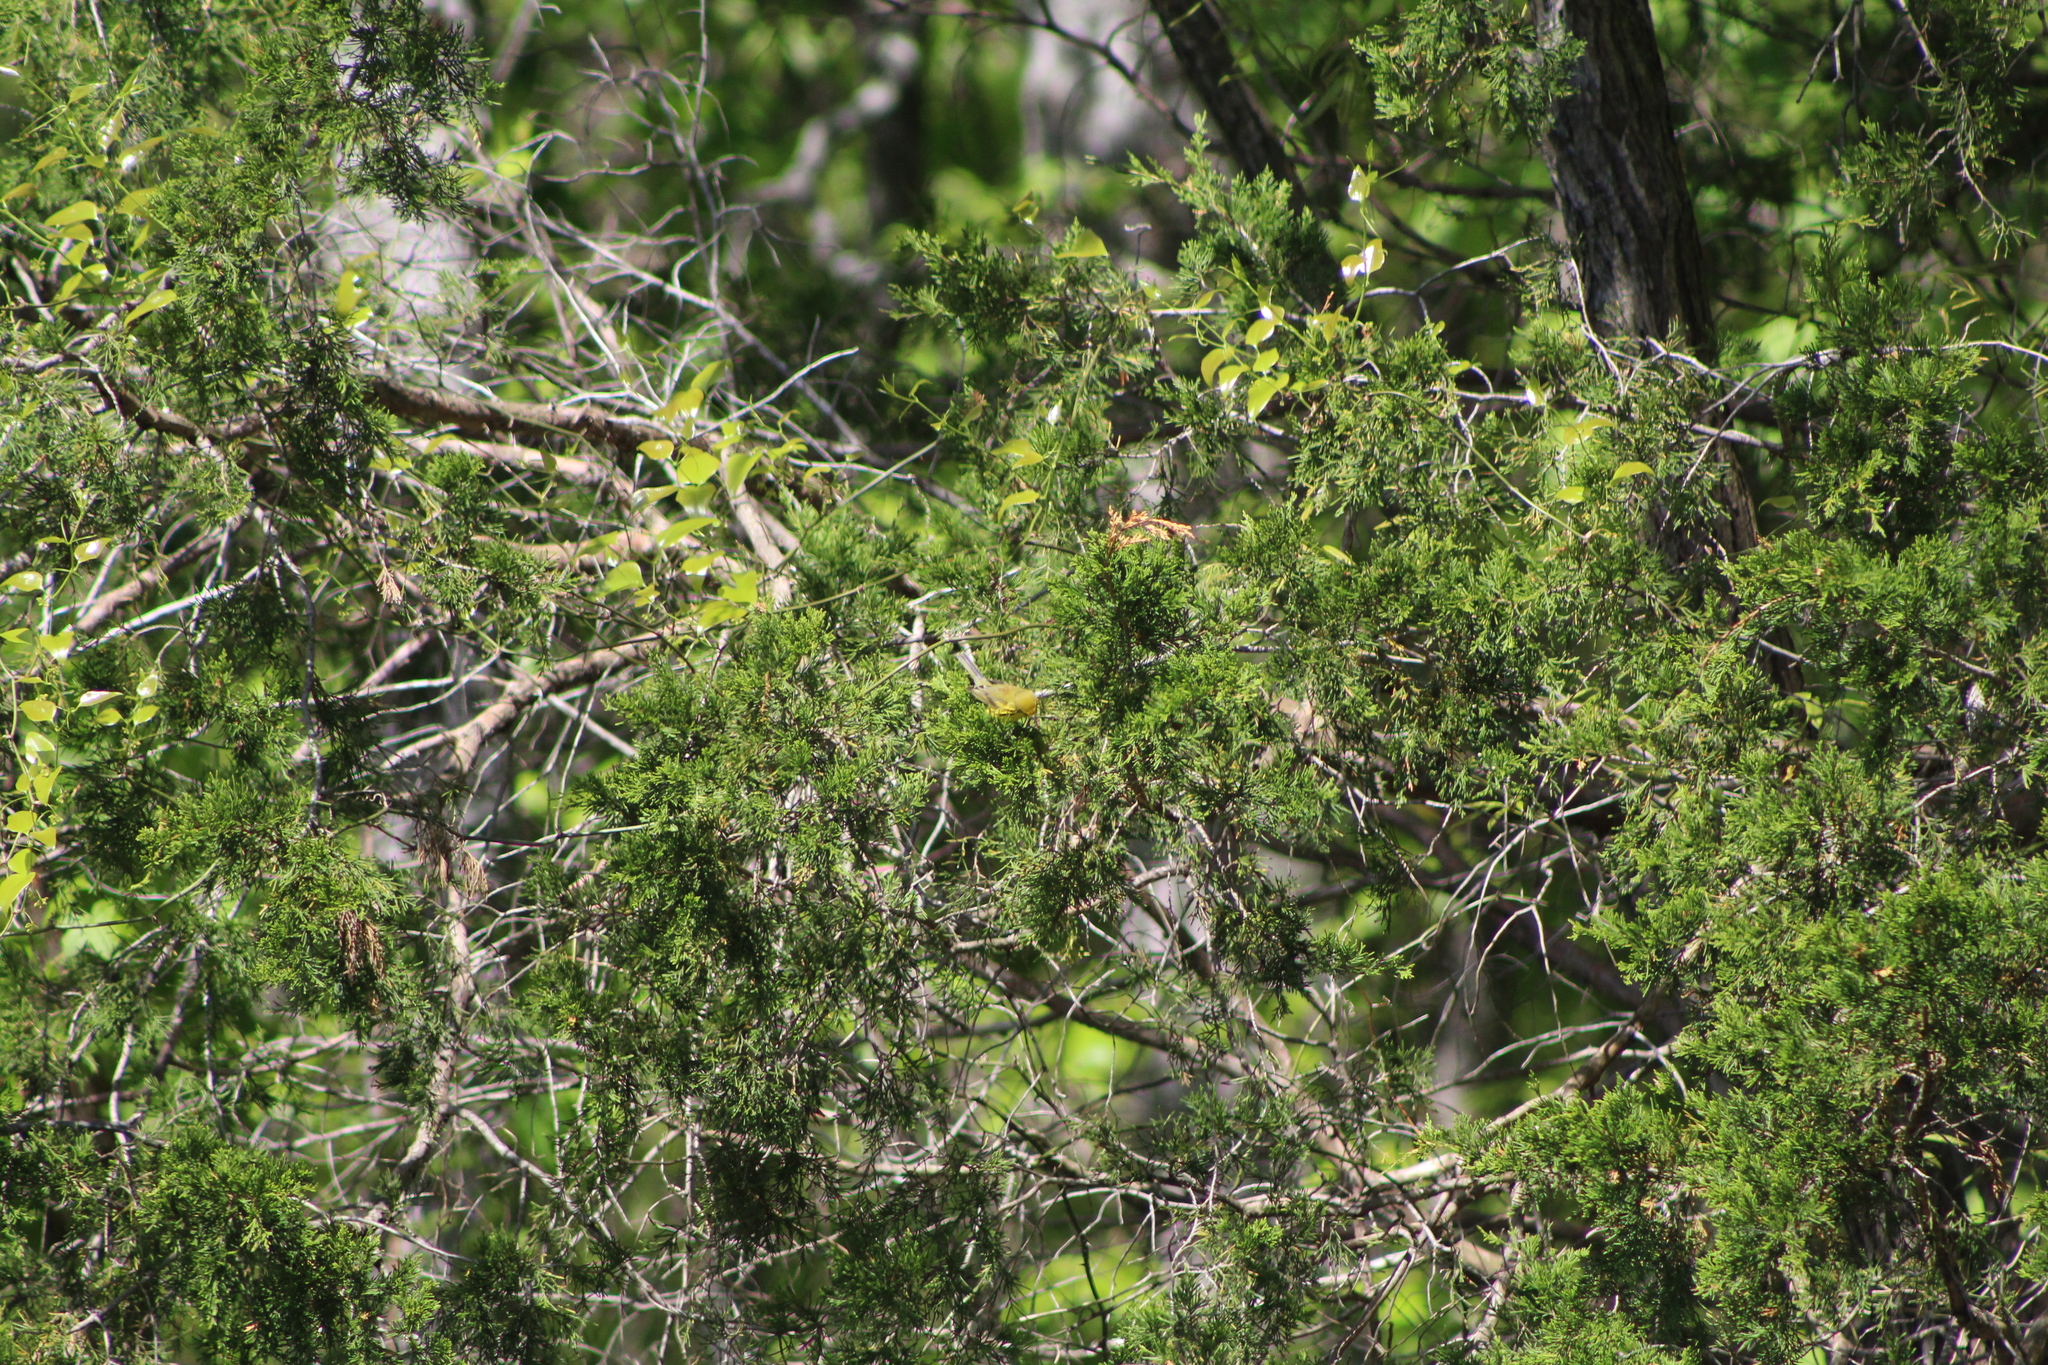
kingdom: Animalia
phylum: Chordata
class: Aves
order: Passeriformes
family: Parulidae
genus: Setophaga
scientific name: Setophaga discolor
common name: Prairie warbler
